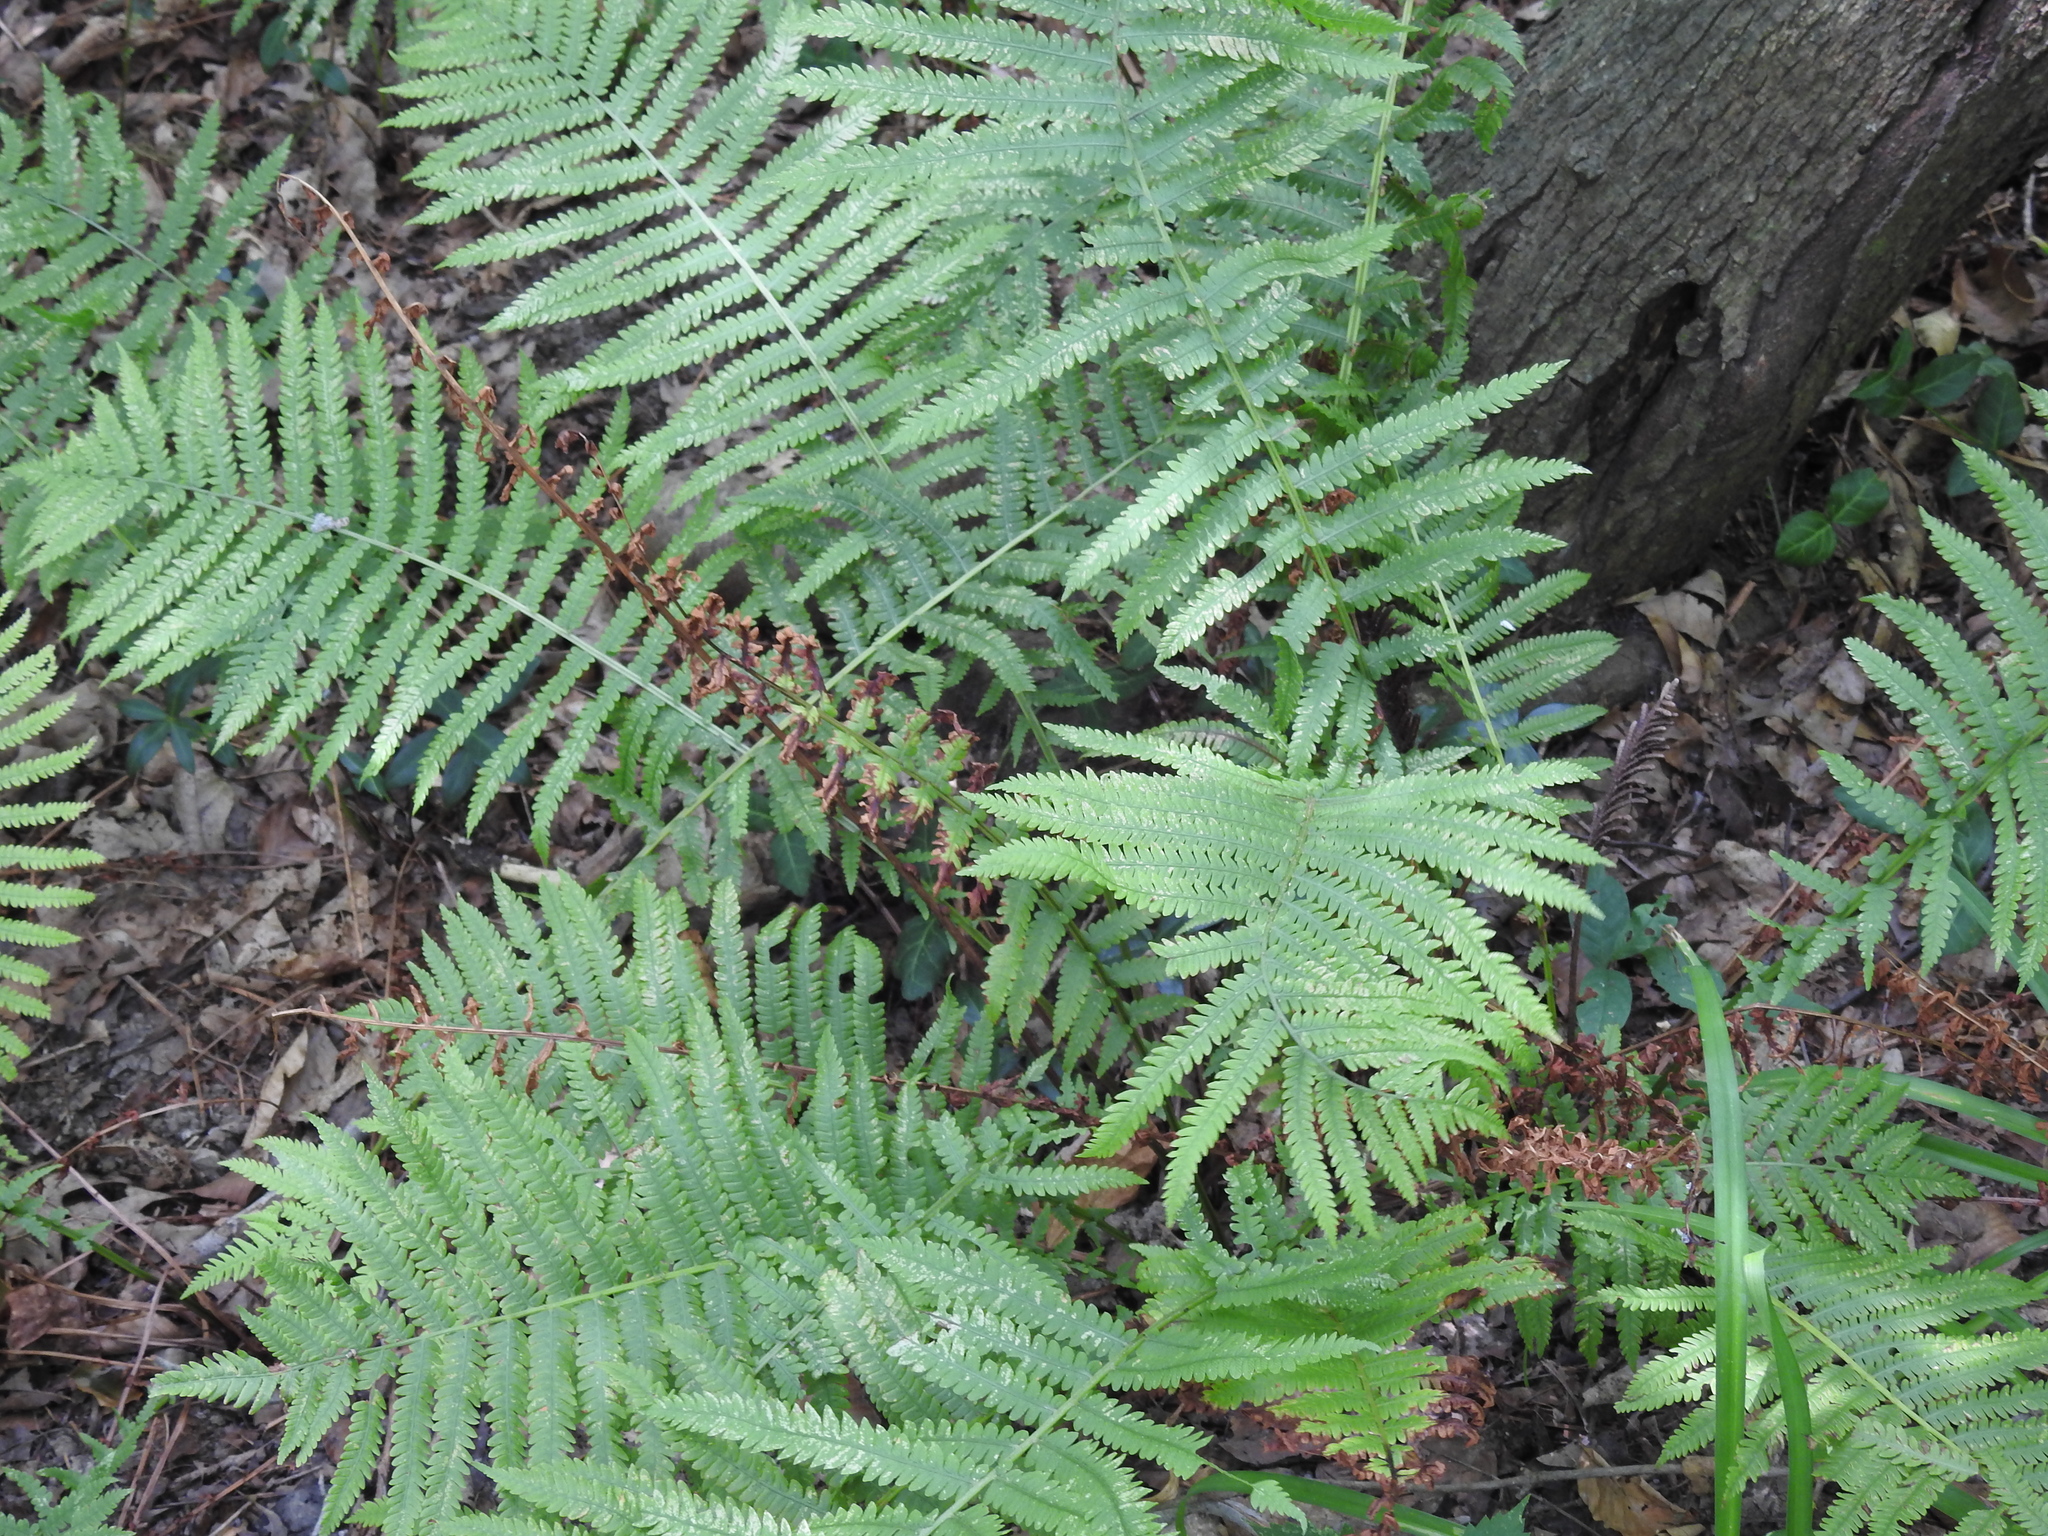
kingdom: Plantae
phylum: Tracheophyta
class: Polypodiopsida
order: Osmundales
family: Osmundaceae
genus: Osmundastrum
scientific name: Osmundastrum cinnamomeum
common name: Cinnamon fern
